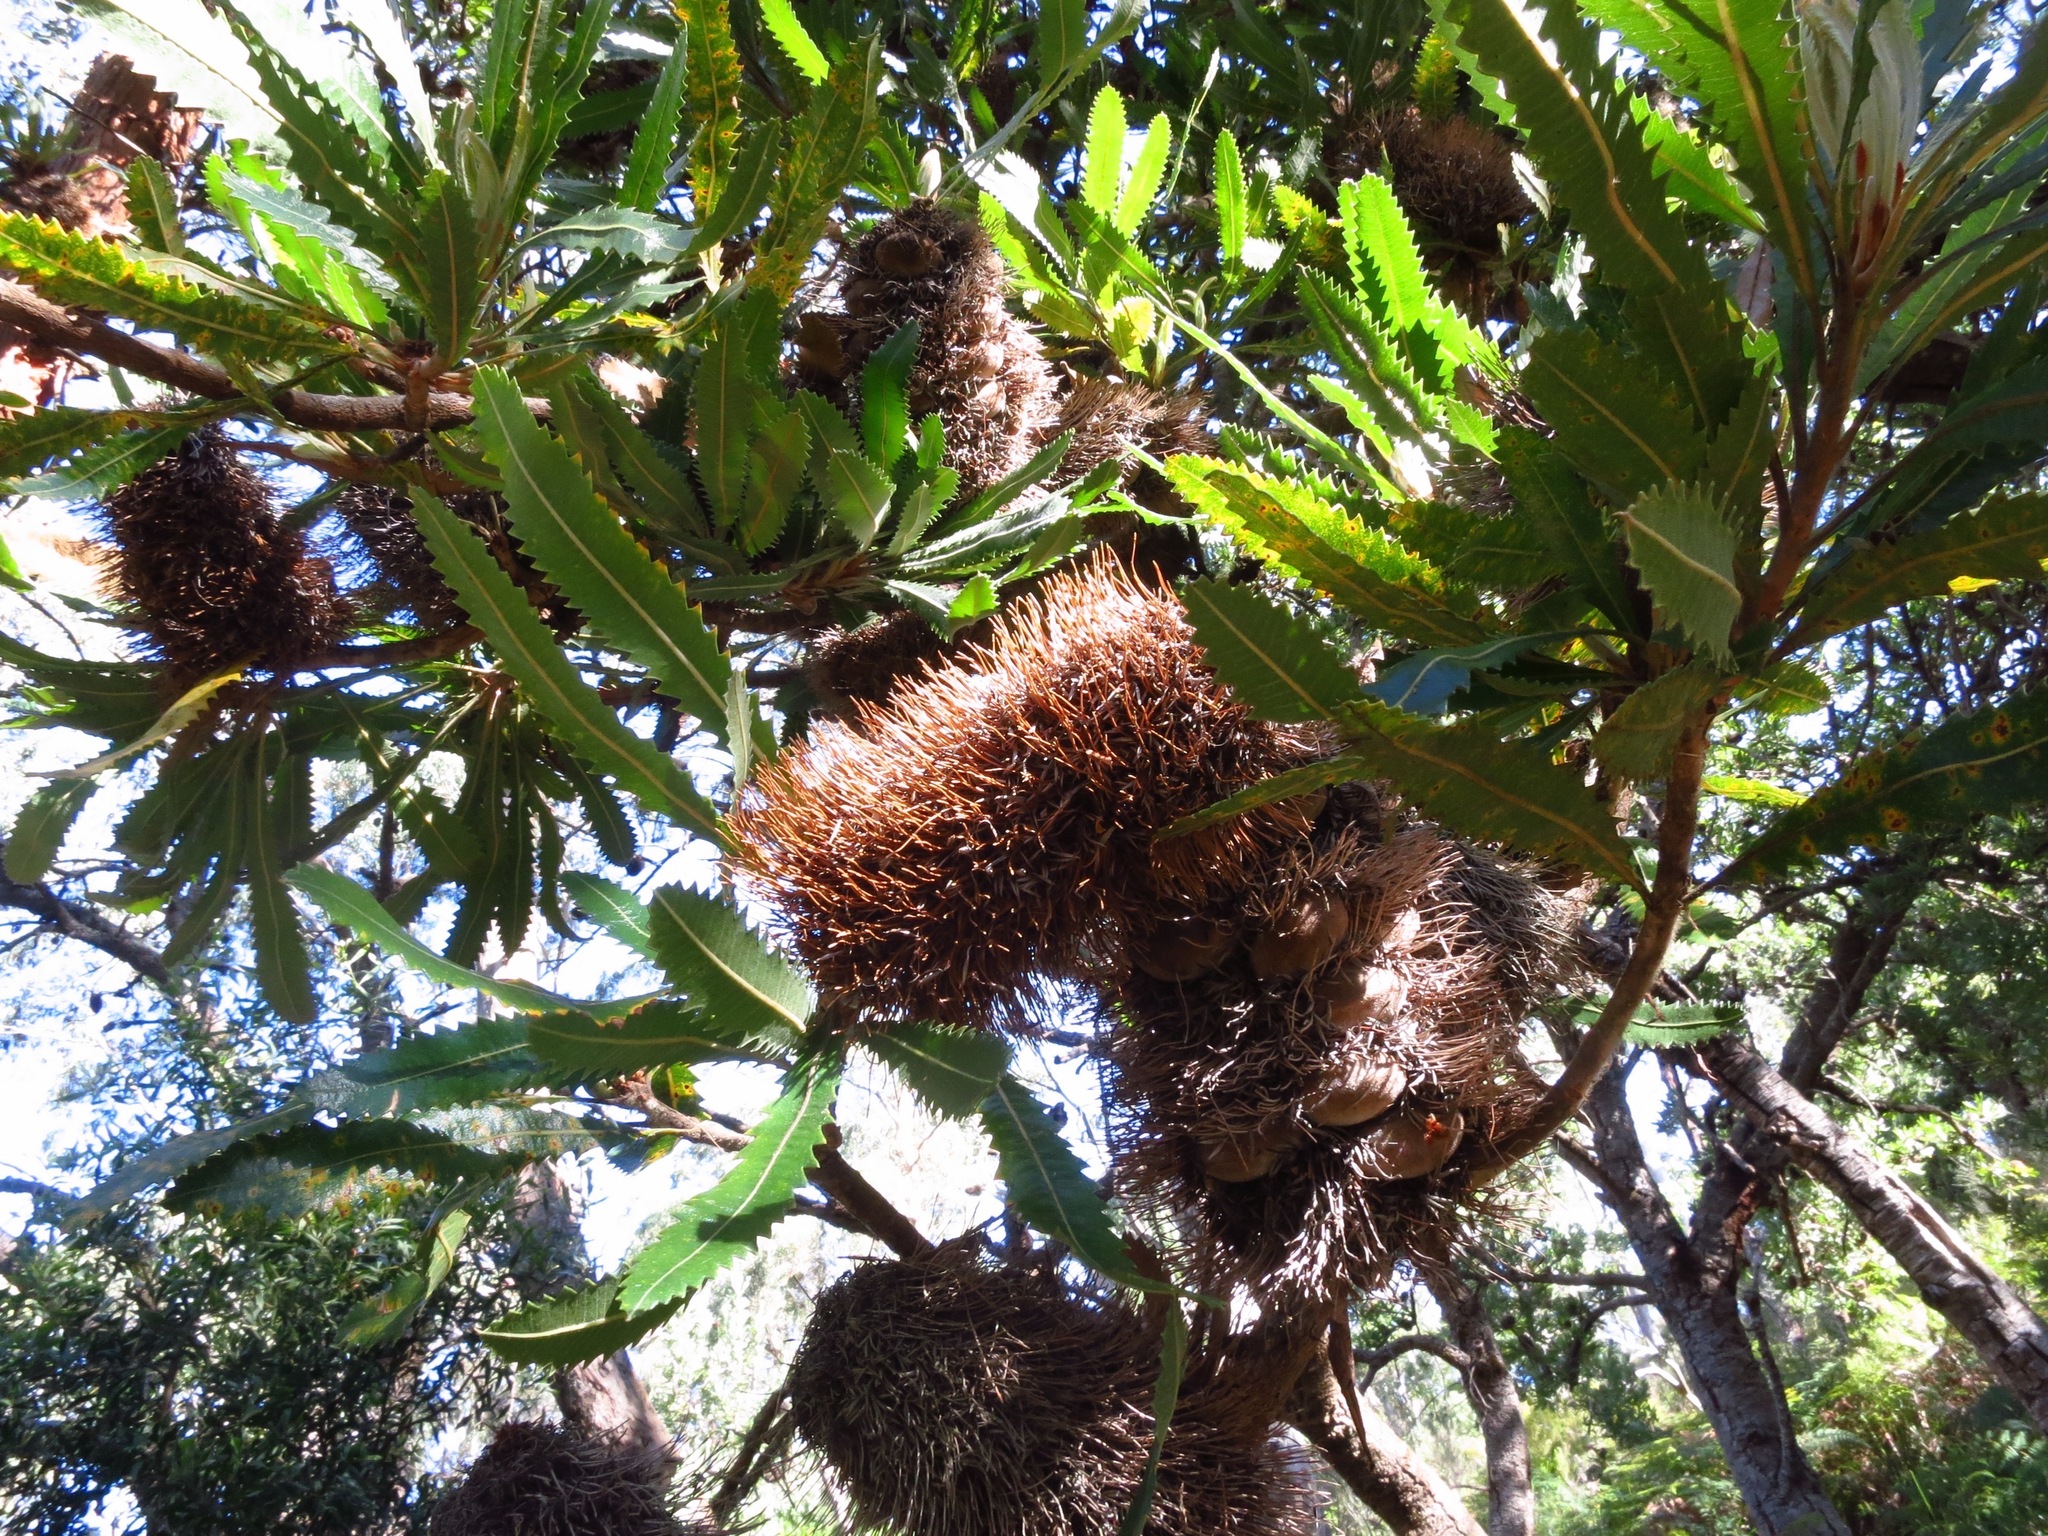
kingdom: Plantae
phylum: Tracheophyta
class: Magnoliopsida
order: Proteales
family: Proteaceae
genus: Banksia
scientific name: Banksia serrata
